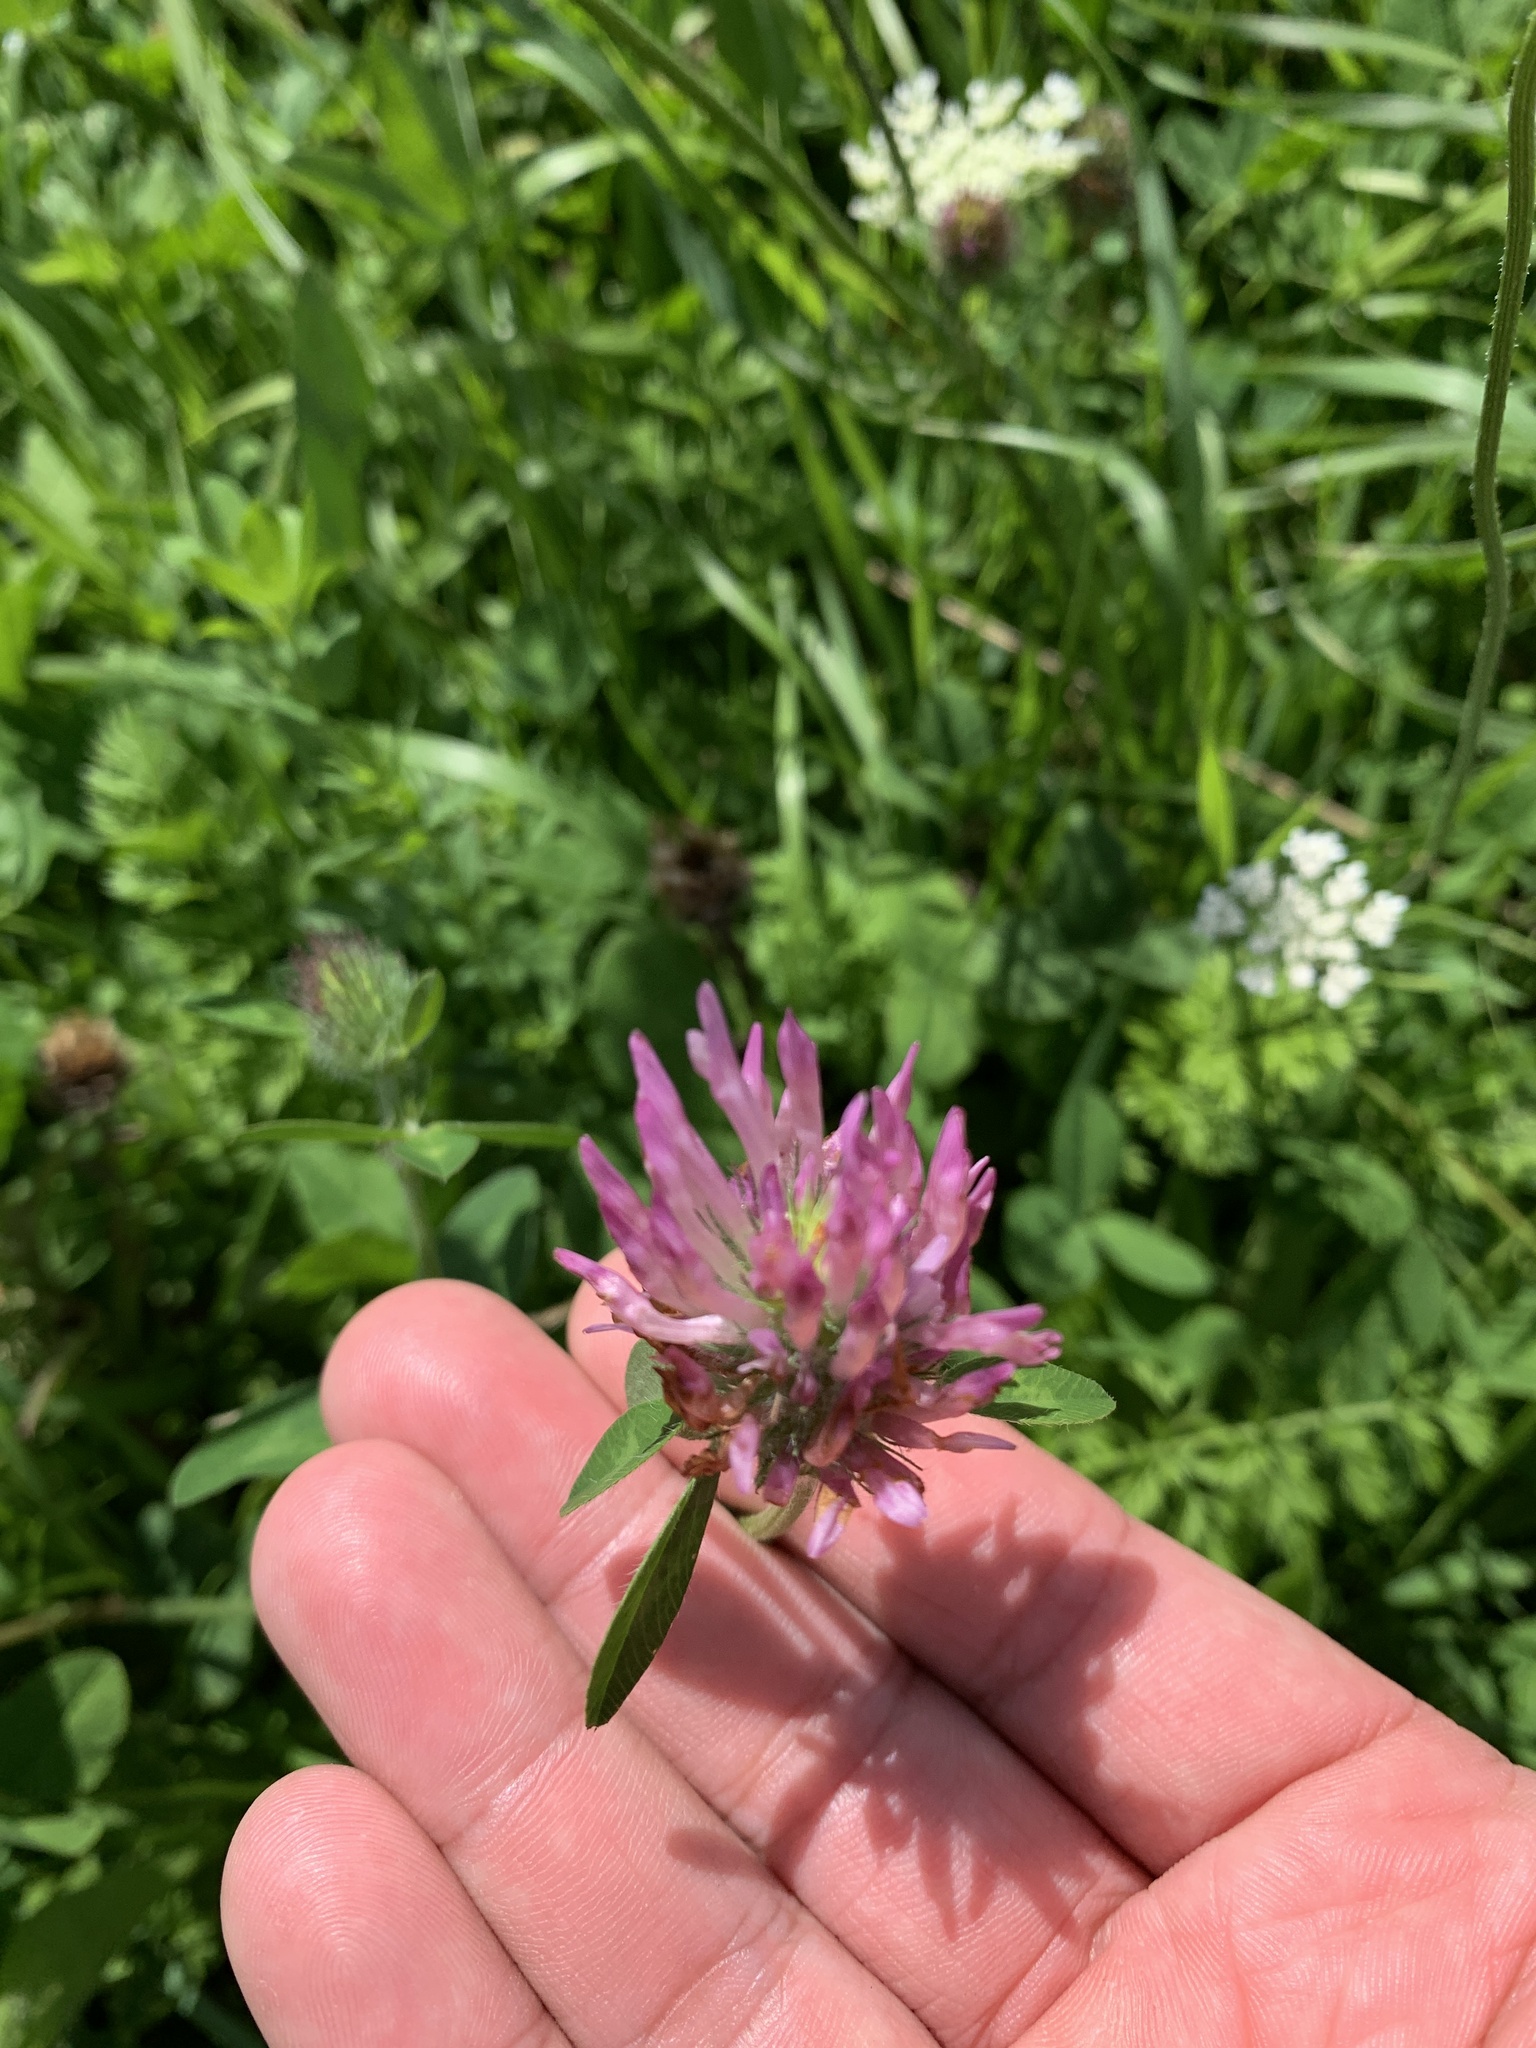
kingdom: Plantae
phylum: Tracheophyta
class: Magnoliopsida
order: Fabales
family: Fabaceae
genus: Trifolium
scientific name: Trifolium pratense
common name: Red clover
